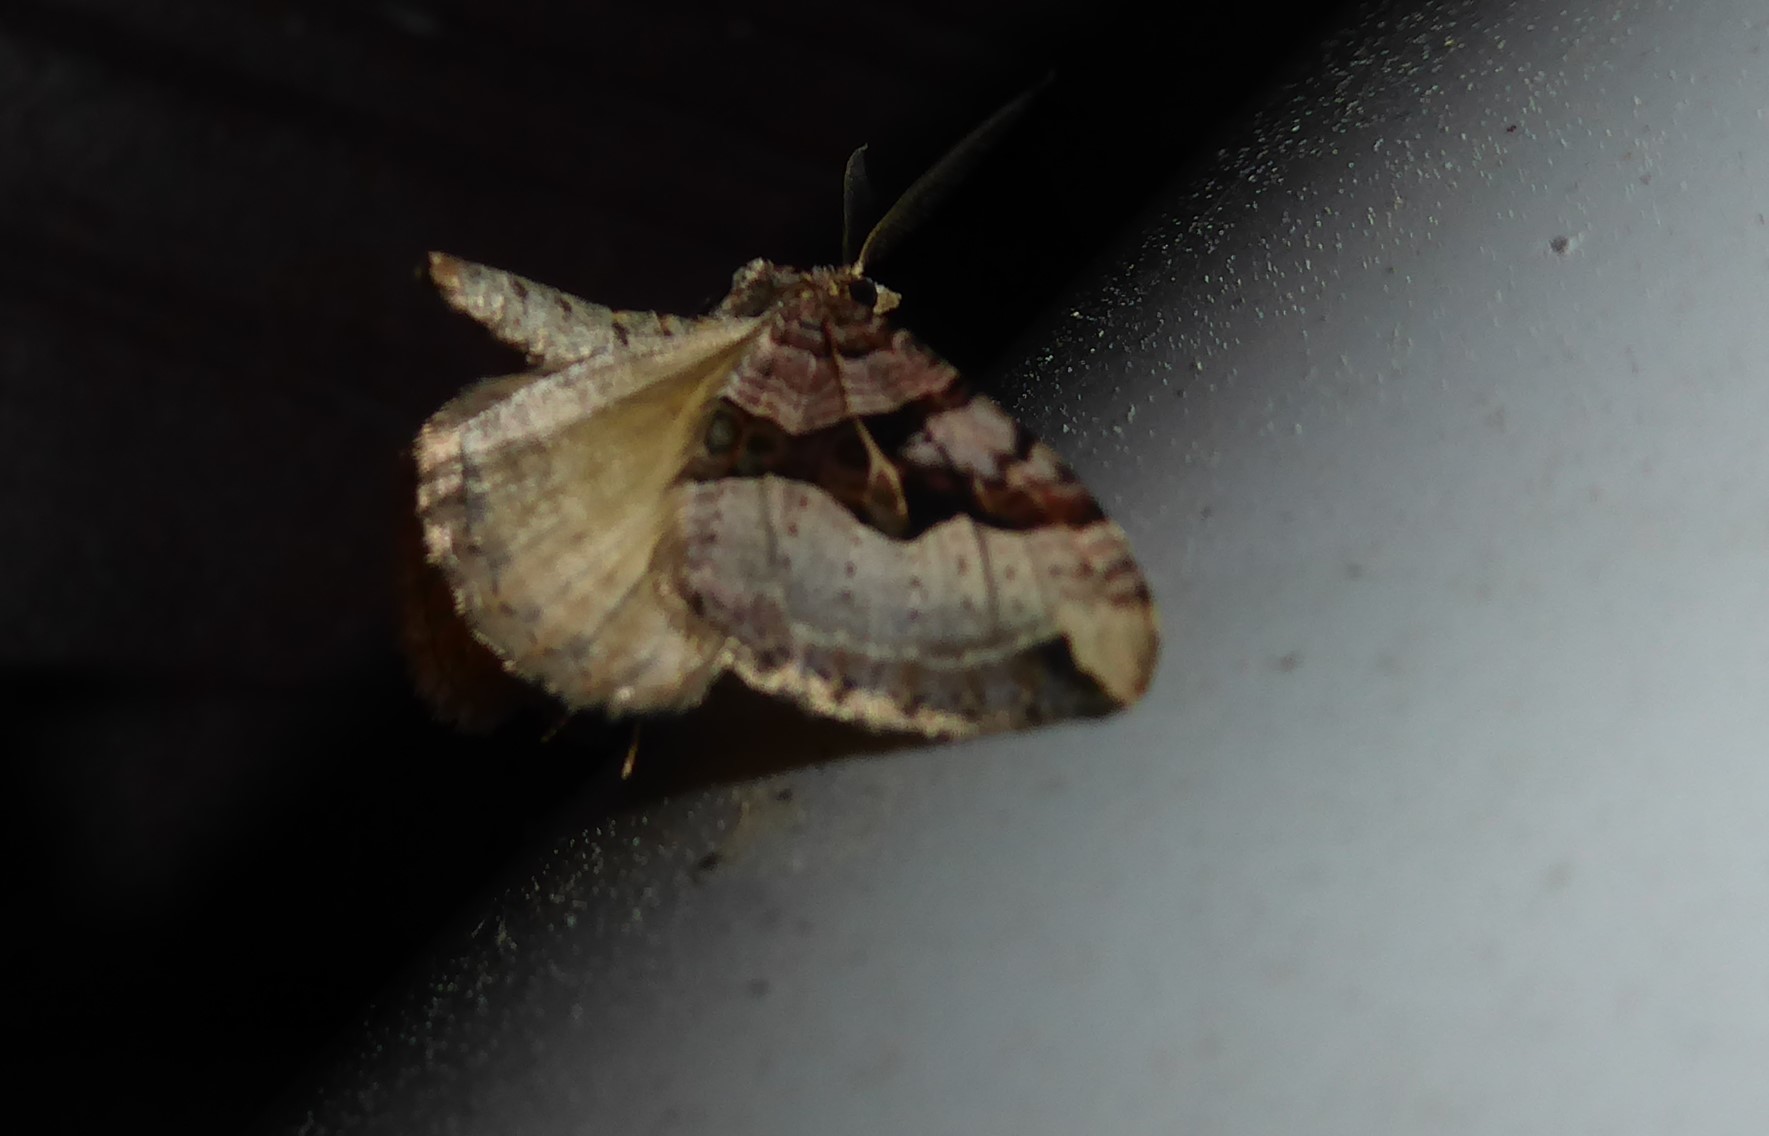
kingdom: Animalia
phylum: Arthropoda
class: Insecta
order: Lepidoptera
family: Geometridae
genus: Xanthorhoe
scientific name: Xanthorhoe semifissata
